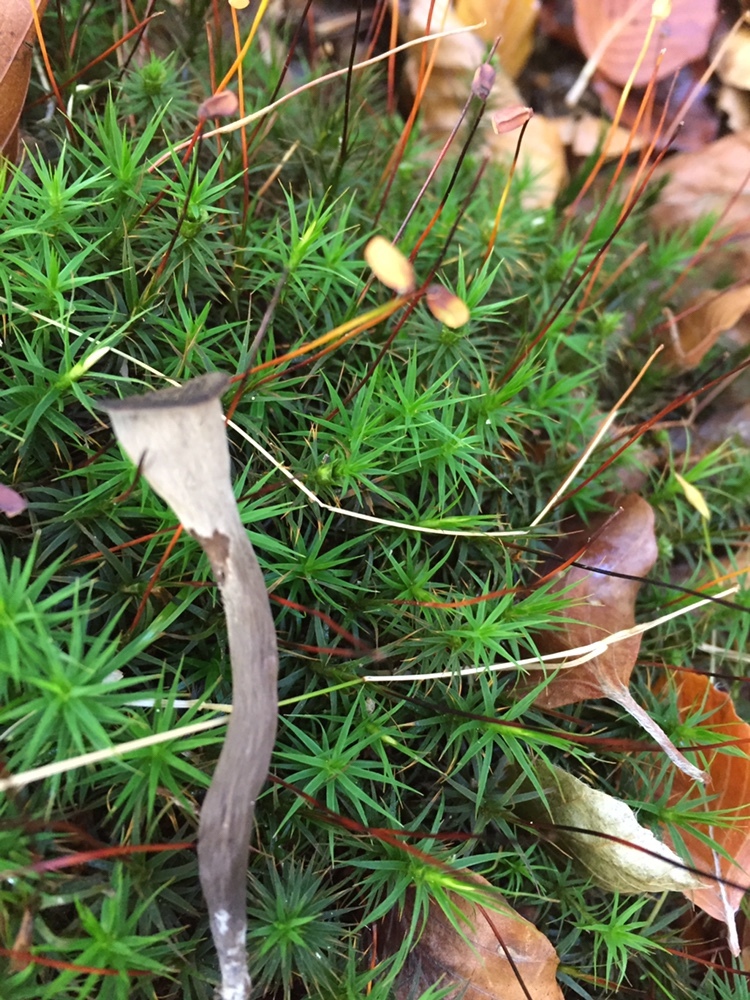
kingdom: Fungi
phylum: Basidiomycota
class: Agaricomycetes
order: Cantharellales
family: Hydnaceae
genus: Craterellus
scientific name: Craterellus cornucopioides
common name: Horn of plenty
